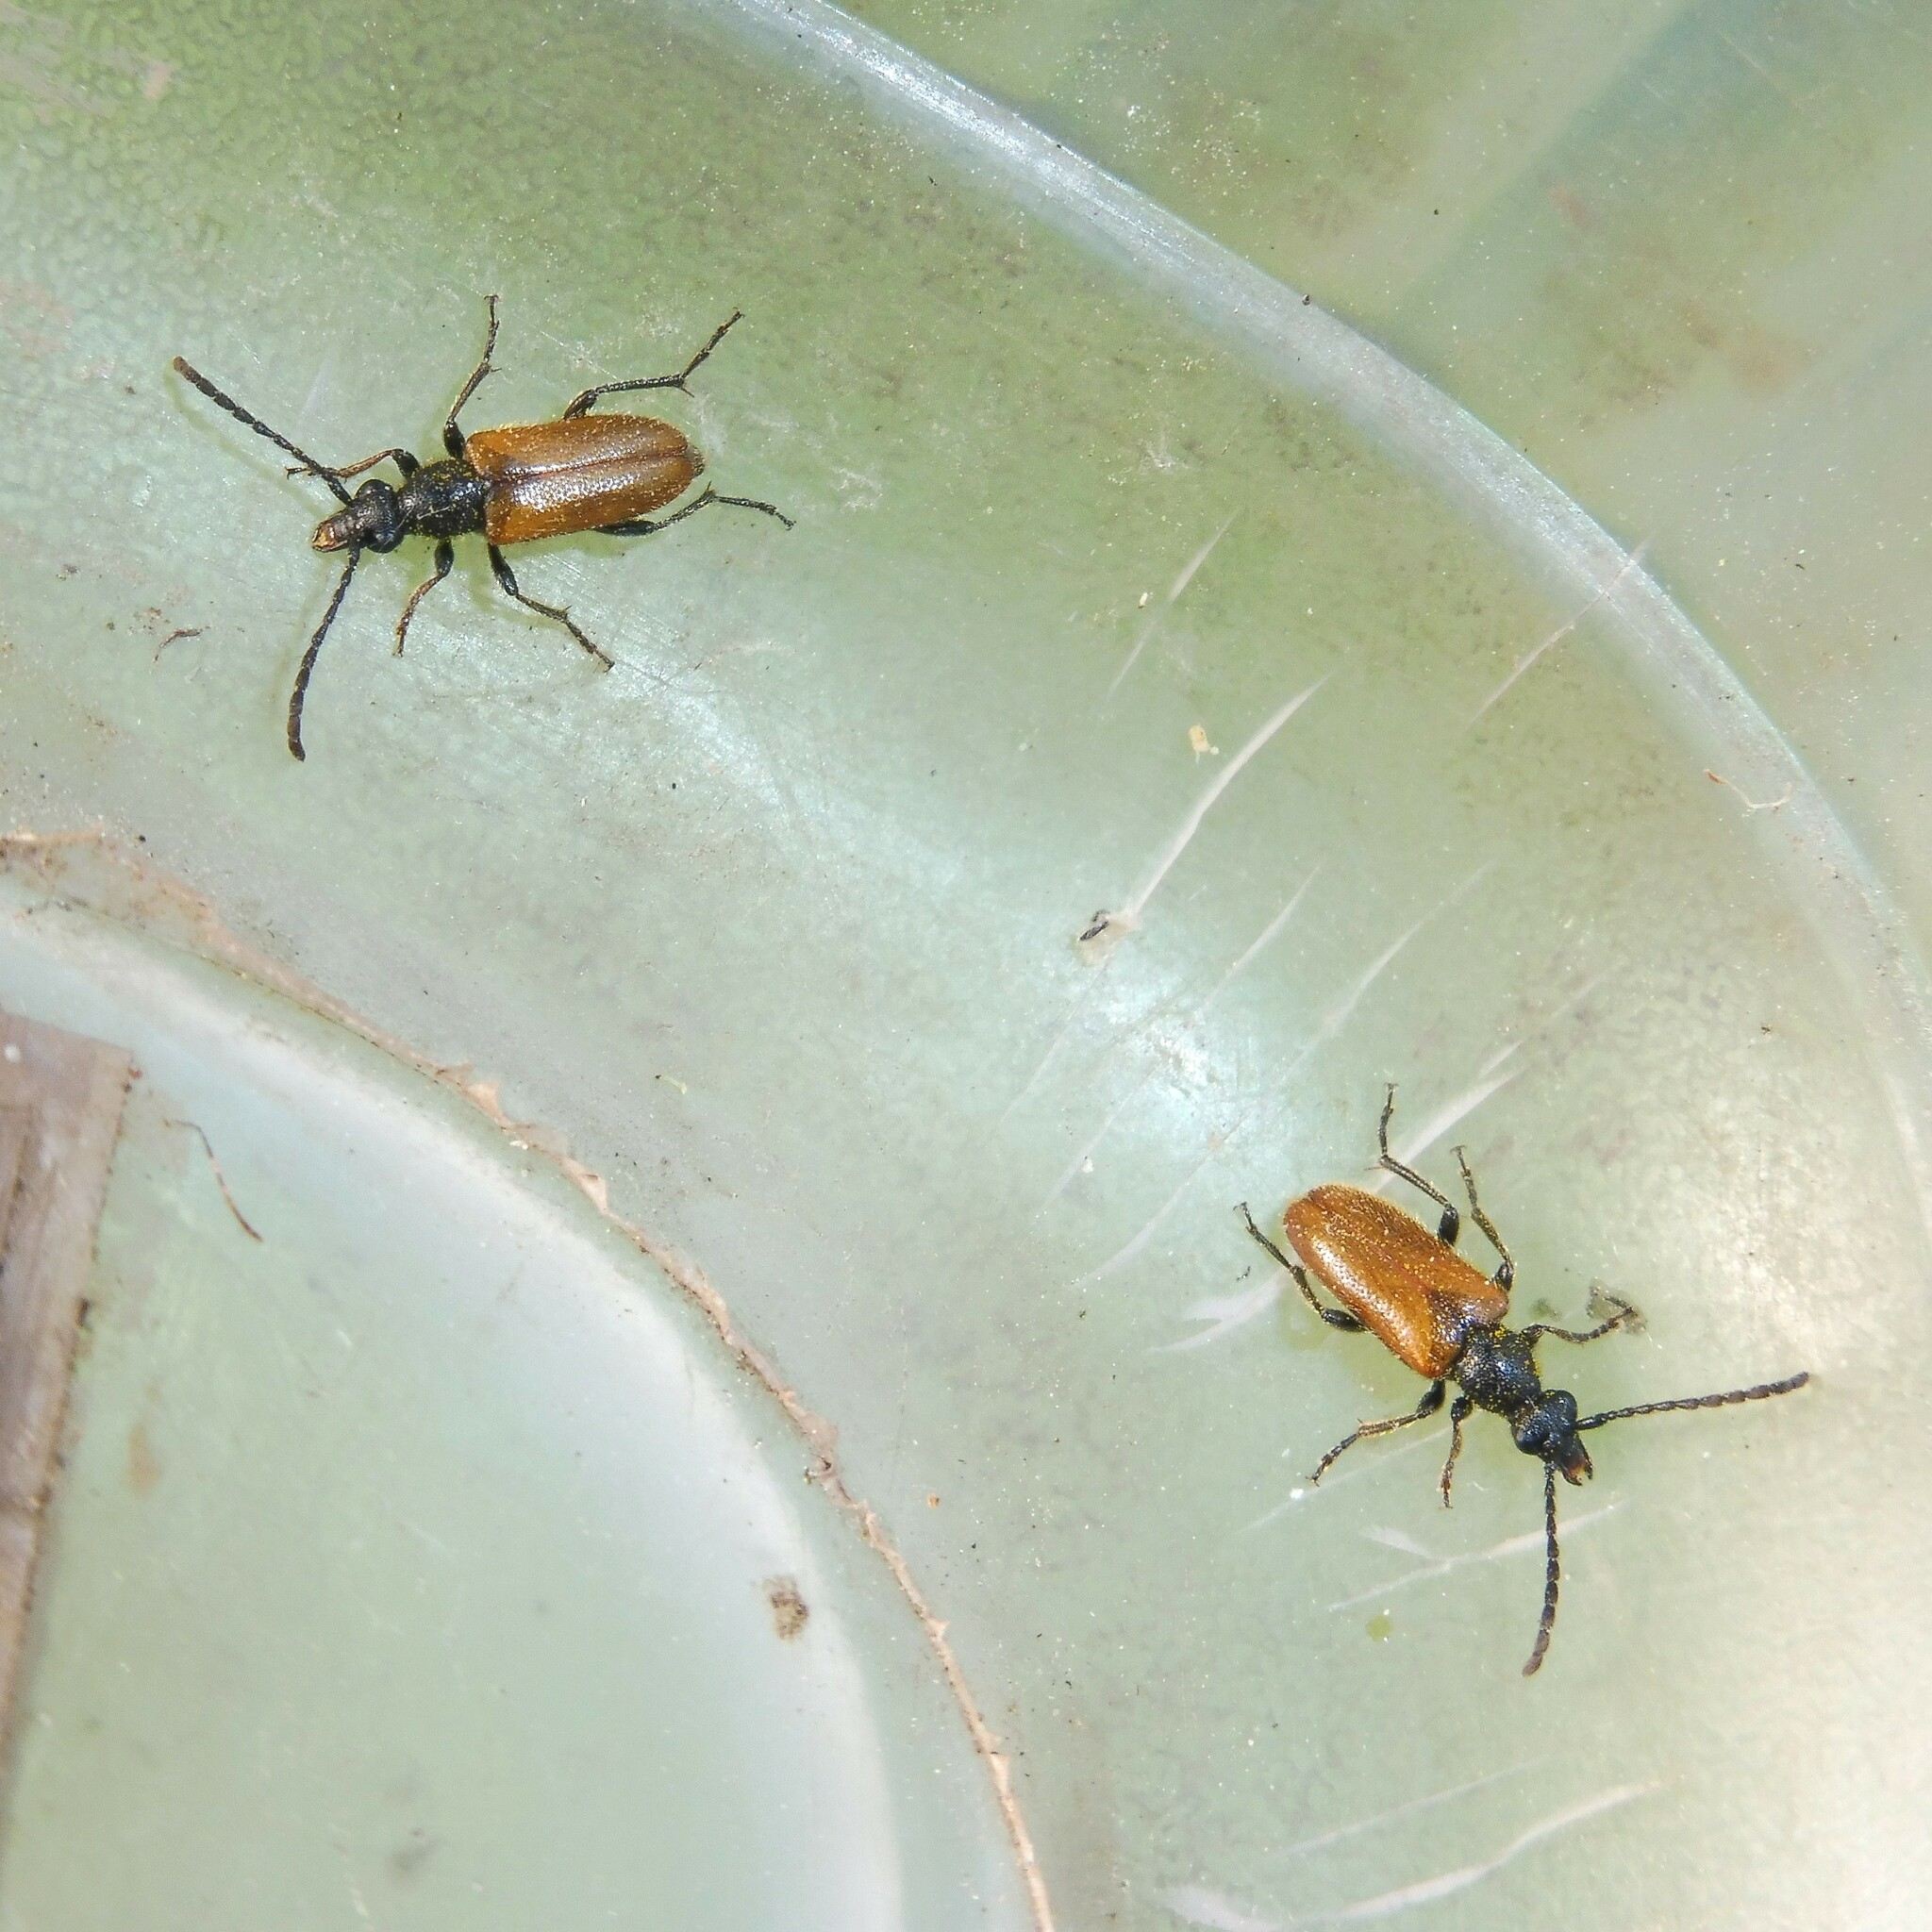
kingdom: Animalia
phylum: Arthropoda
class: Insecta
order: Coleoptera
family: Cerambycidae
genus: Pseudovadonia
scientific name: Pseudovadonia livida
